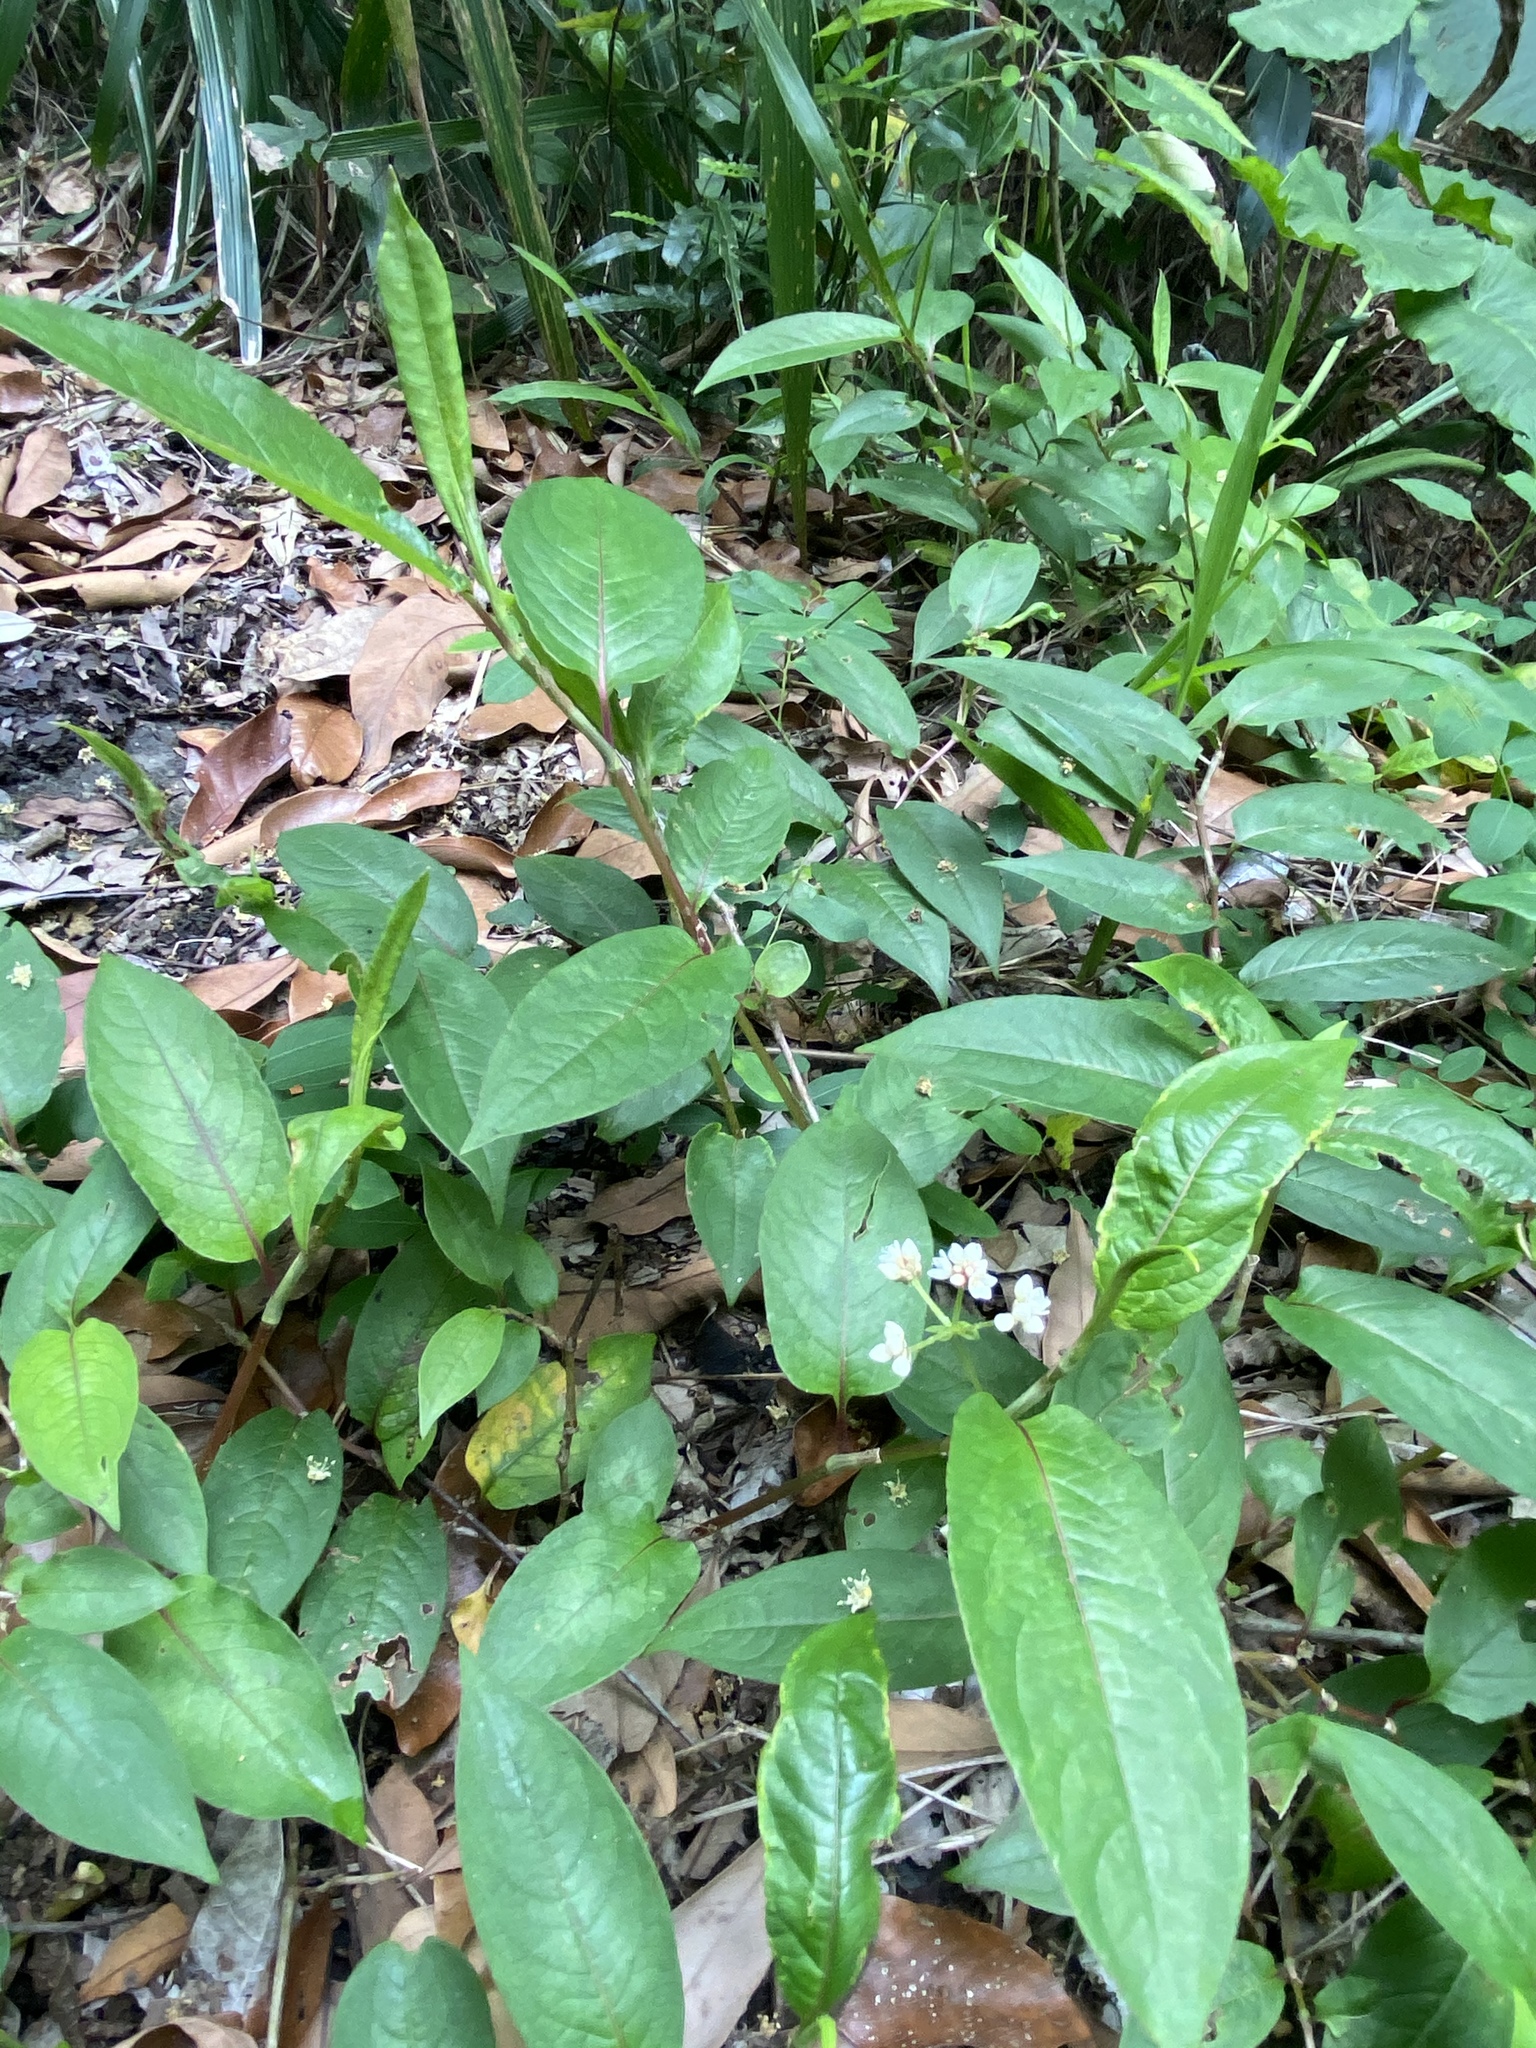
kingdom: Plantae
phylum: Tracheophyta
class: Magnoliopsida
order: Caryophyllales
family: Polygonaceae
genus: Persicaria
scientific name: Persicaria chinensis
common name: Chinese knotweed
